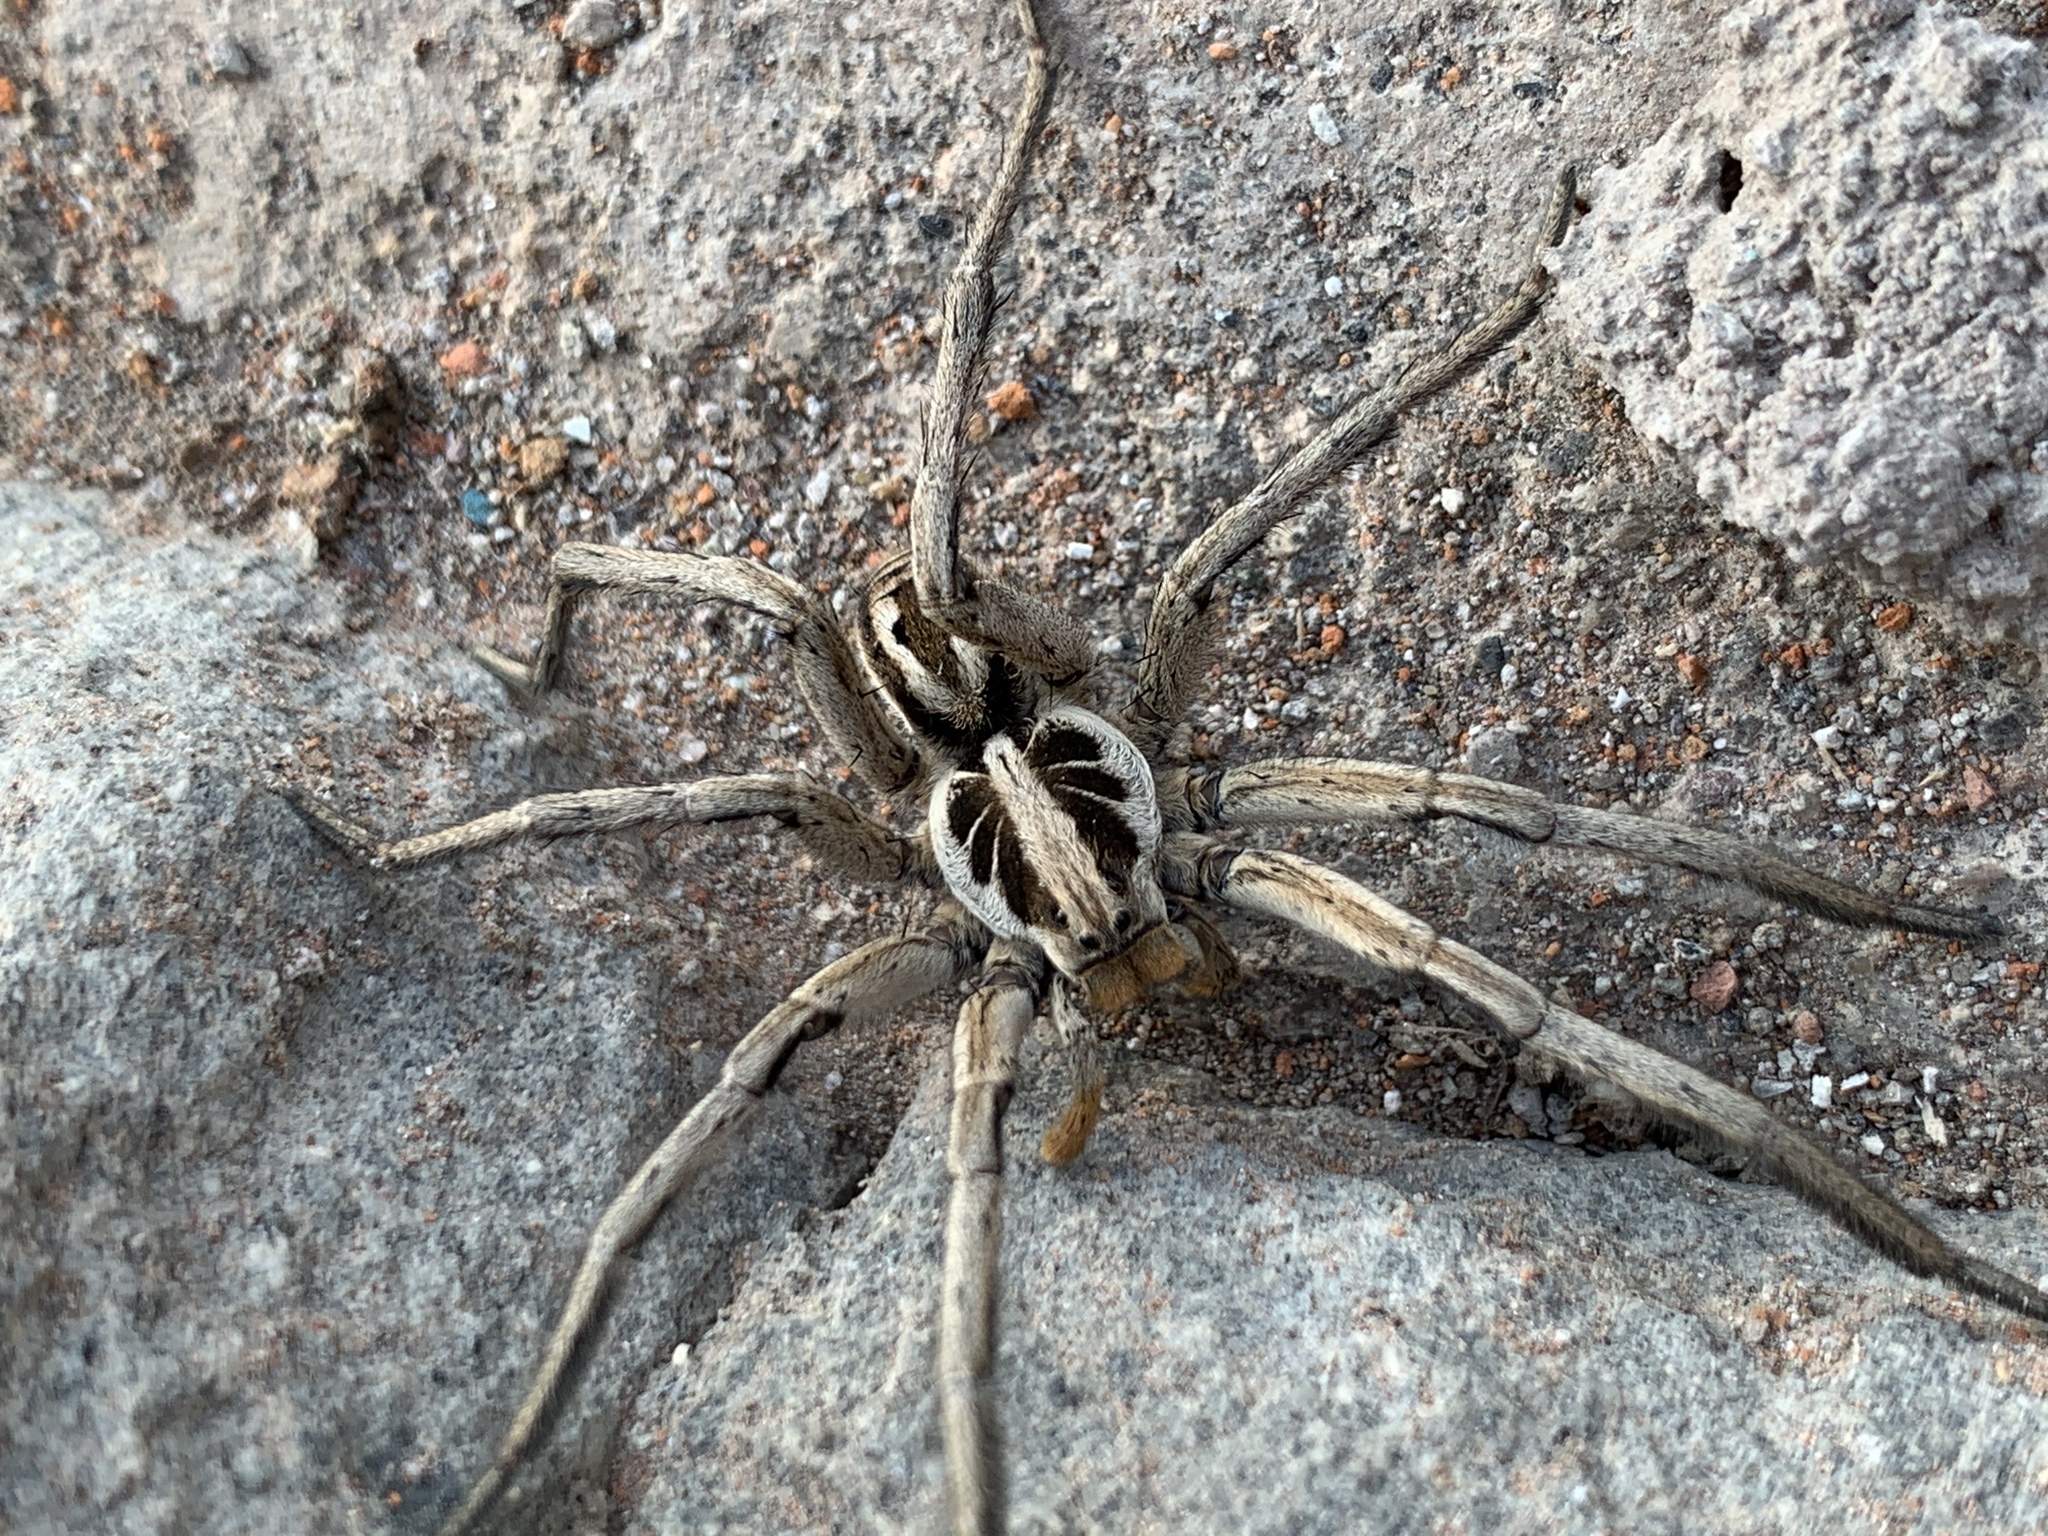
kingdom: Animalia
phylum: Arthropoda
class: Arachnida
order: Araneae
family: Lycosidae
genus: Lycosa
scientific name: Lycosa erythrognatha
